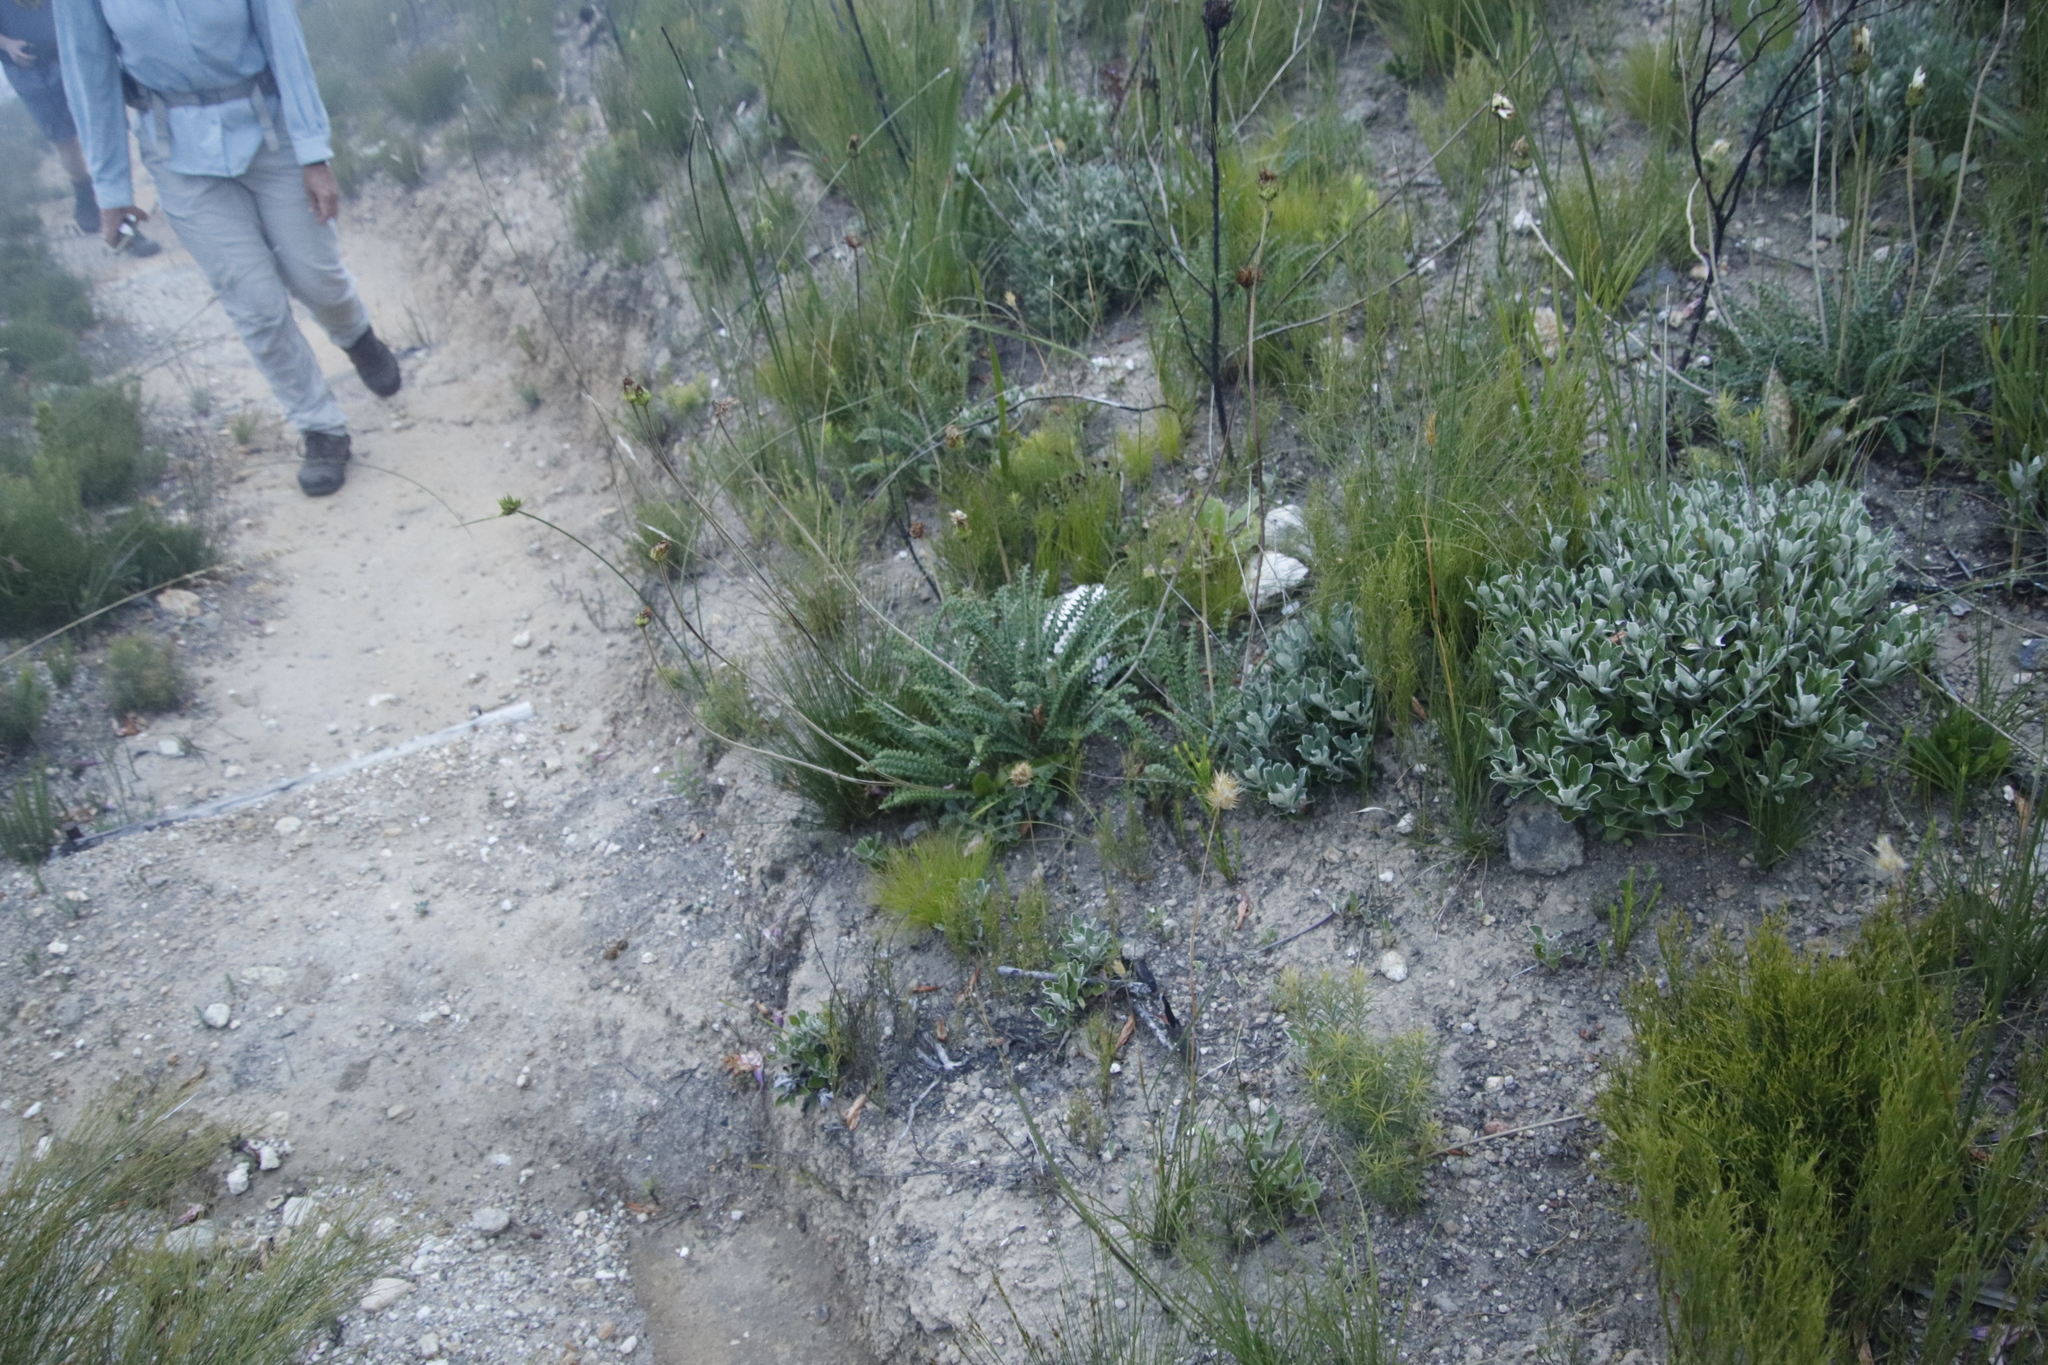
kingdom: Plantae
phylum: Tracheophyta
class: Magnoliopsida
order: Asterales
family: Asteraceae
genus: Gerbera
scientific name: Gerbera linnaei
